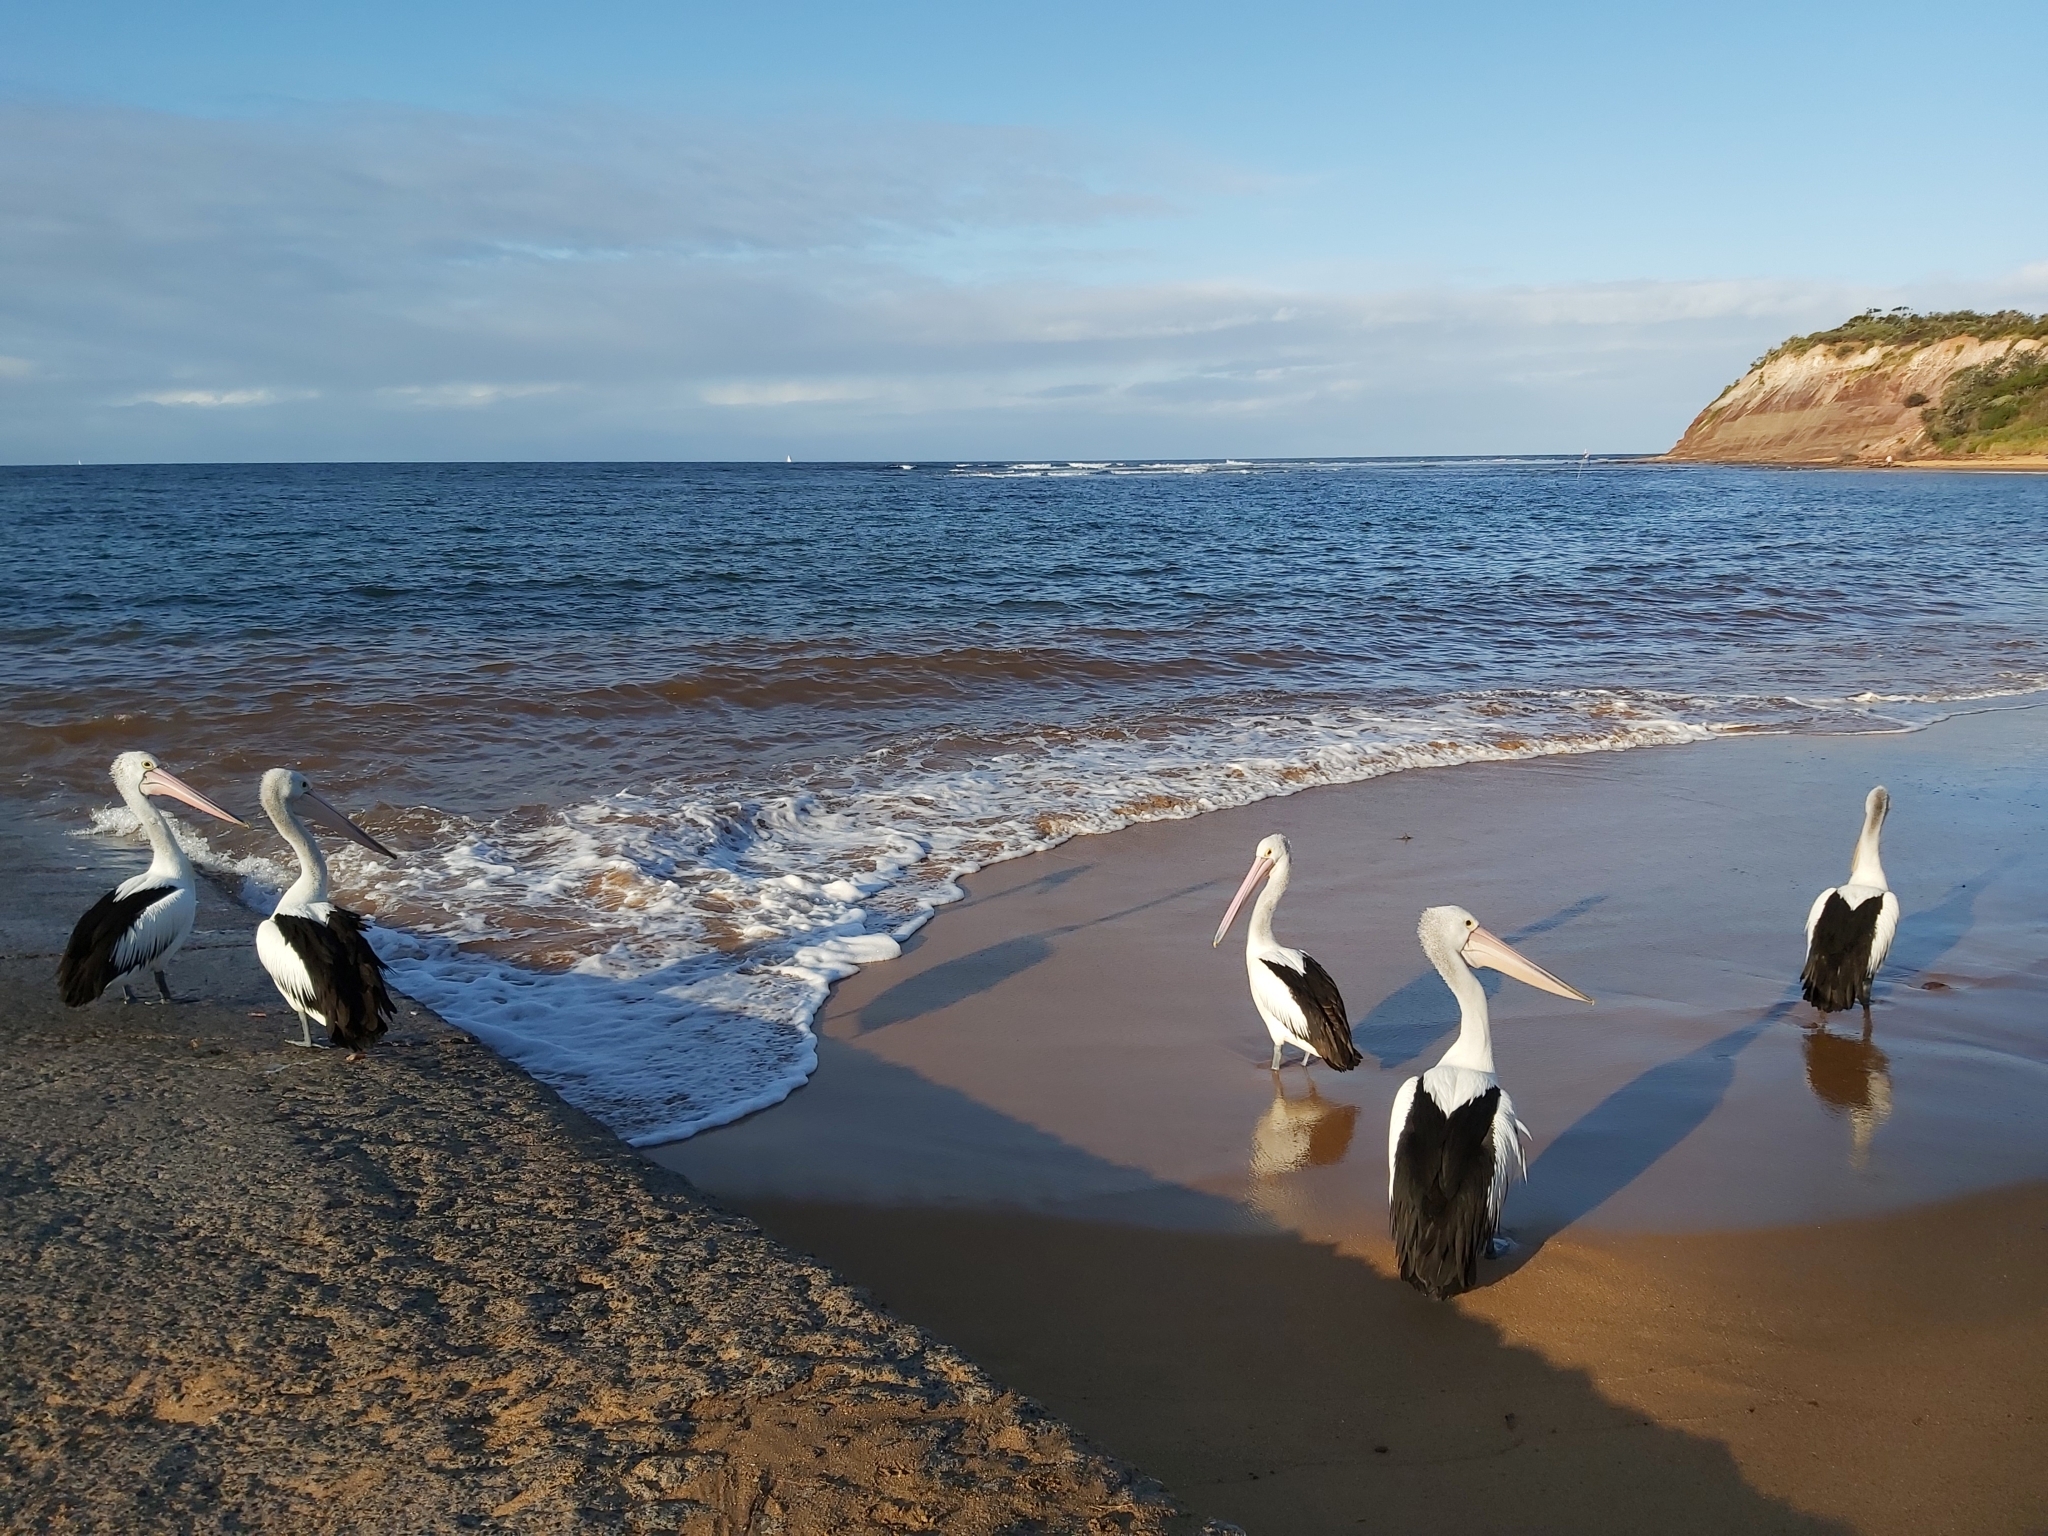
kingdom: Animalia
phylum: Chordata
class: Aves
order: Pelecaniformes
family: Pelecanidae
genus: Pelecanus
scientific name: Pelecanus conspicillatus
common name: Australian pelican
